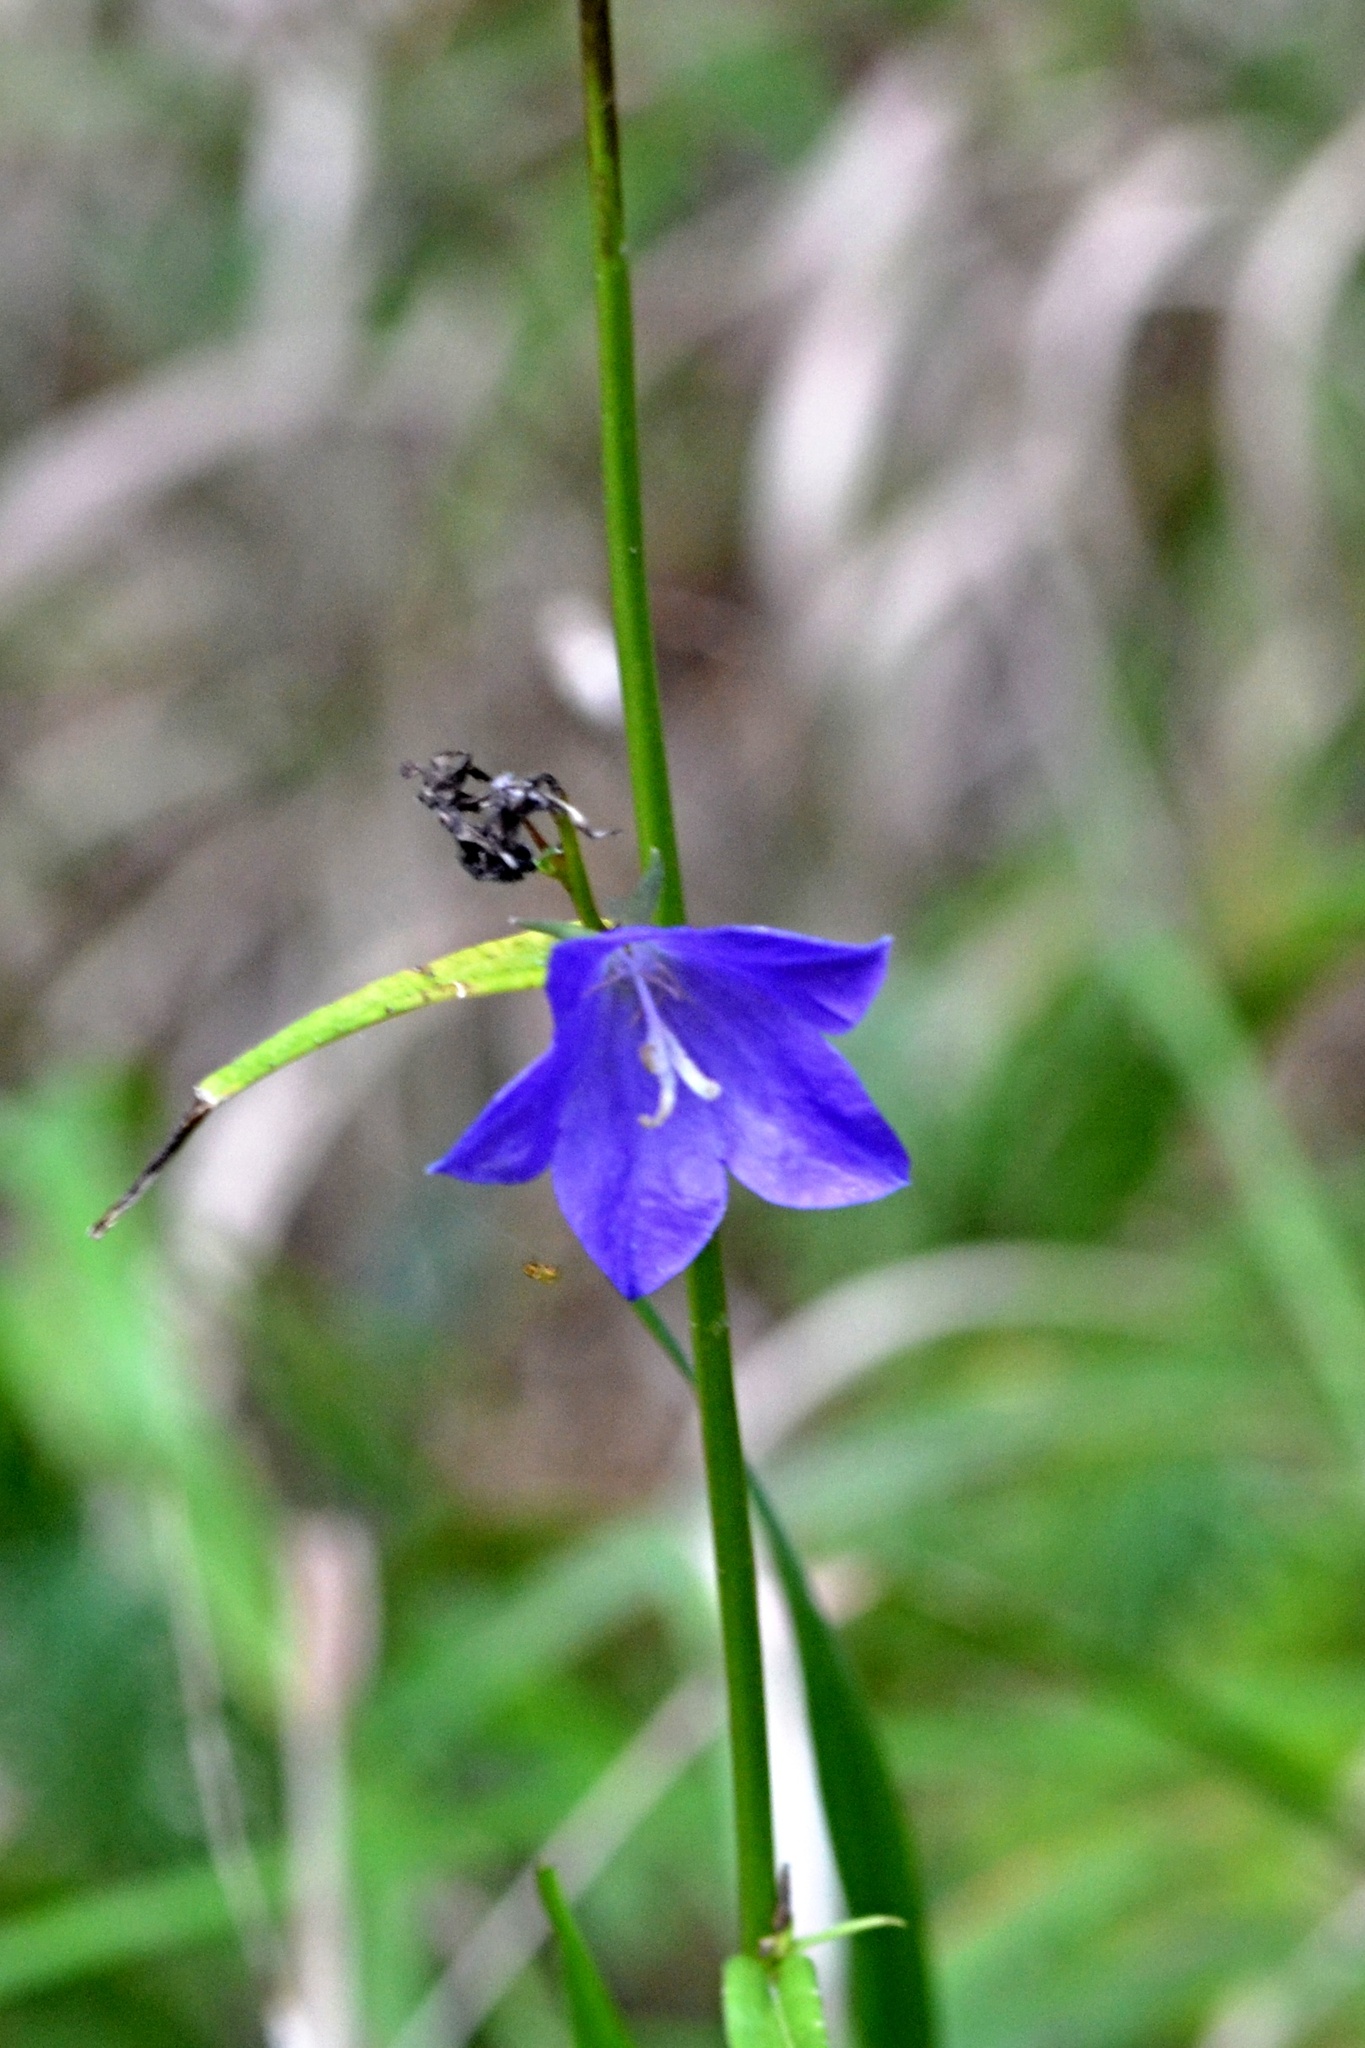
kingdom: Plantae
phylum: Tracheophyta
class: Magnoliopsida
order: Asterales
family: Campanulaceae
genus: Campanula
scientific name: Campanula persicifolia
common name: Peach-leaved bellflower
